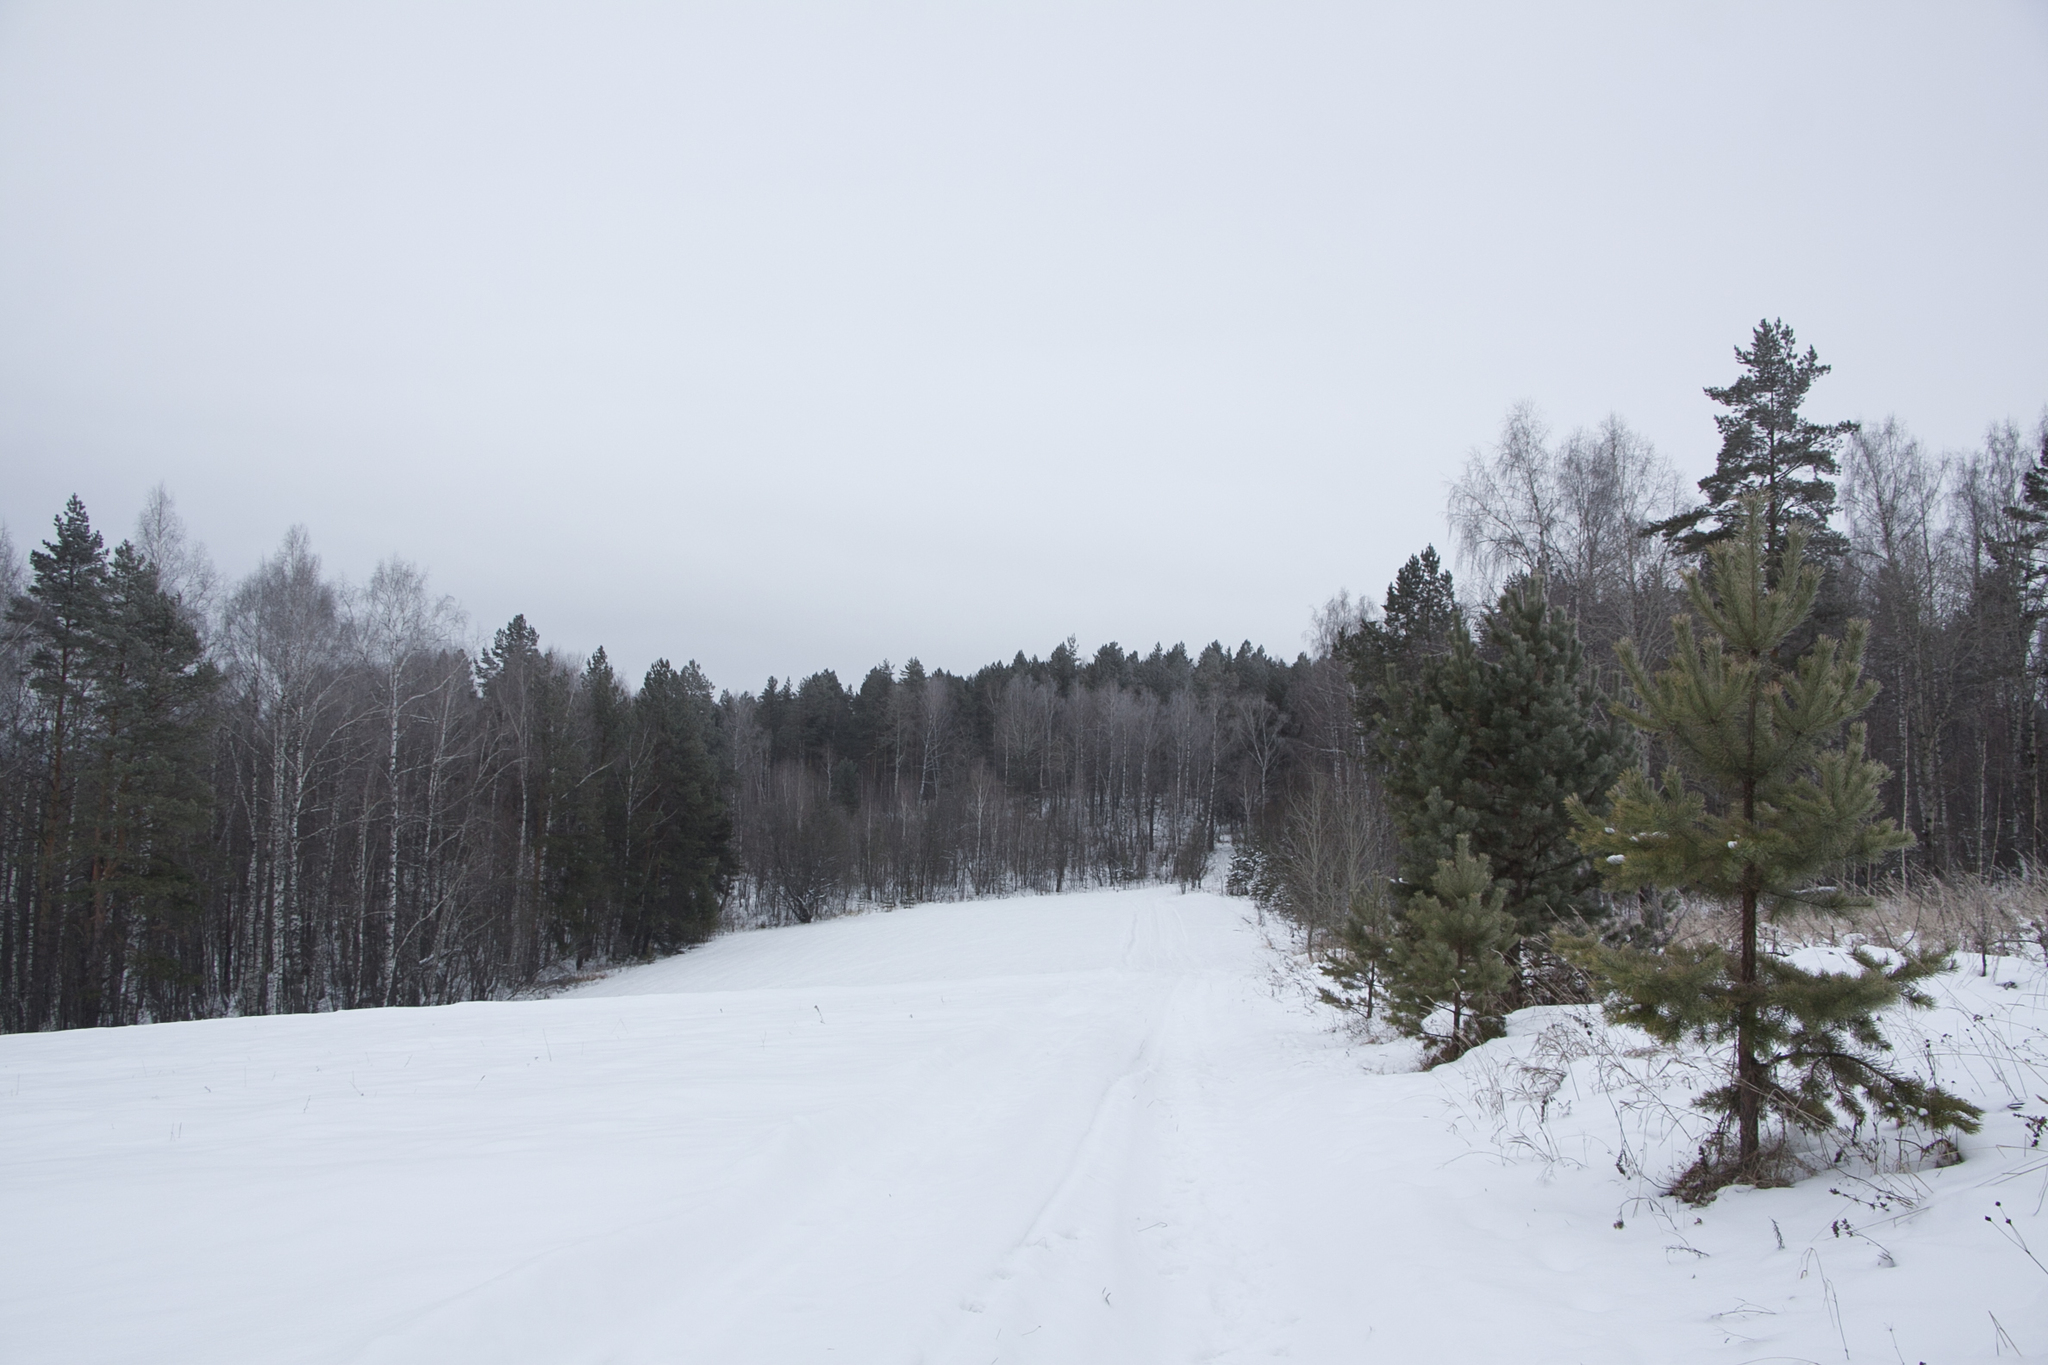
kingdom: Plantae
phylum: Tracheophyta
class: Pinopsida
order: Pinales
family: Pinaceae
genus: Pinus
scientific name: Pinus sylvestris
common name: Scots pine
